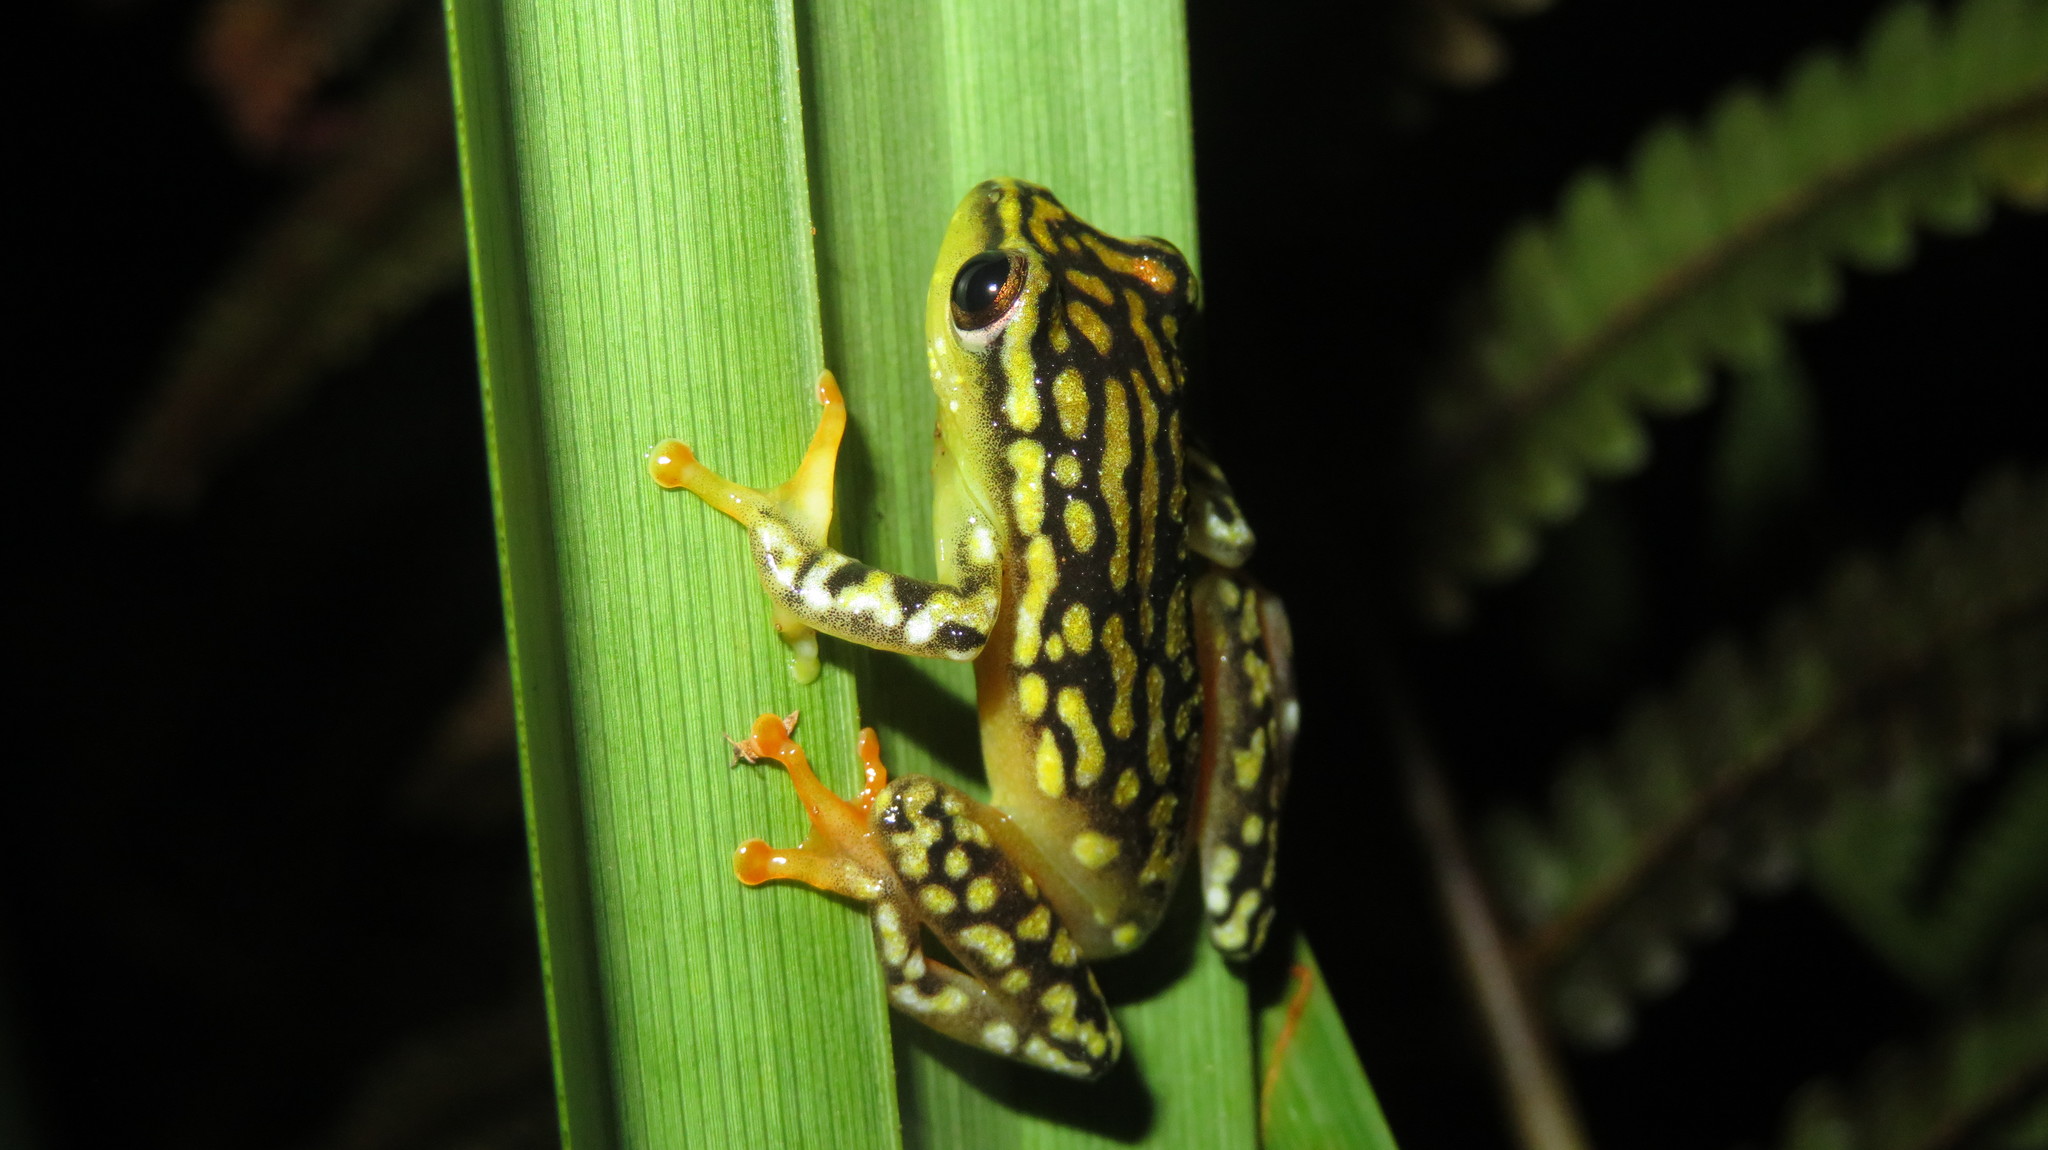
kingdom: Animalia
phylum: Chordata
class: Amphibia
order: Anura
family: Hyperoliidae
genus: Hyperolius
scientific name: Hyperolius substriatus
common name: Spotted reed frog
